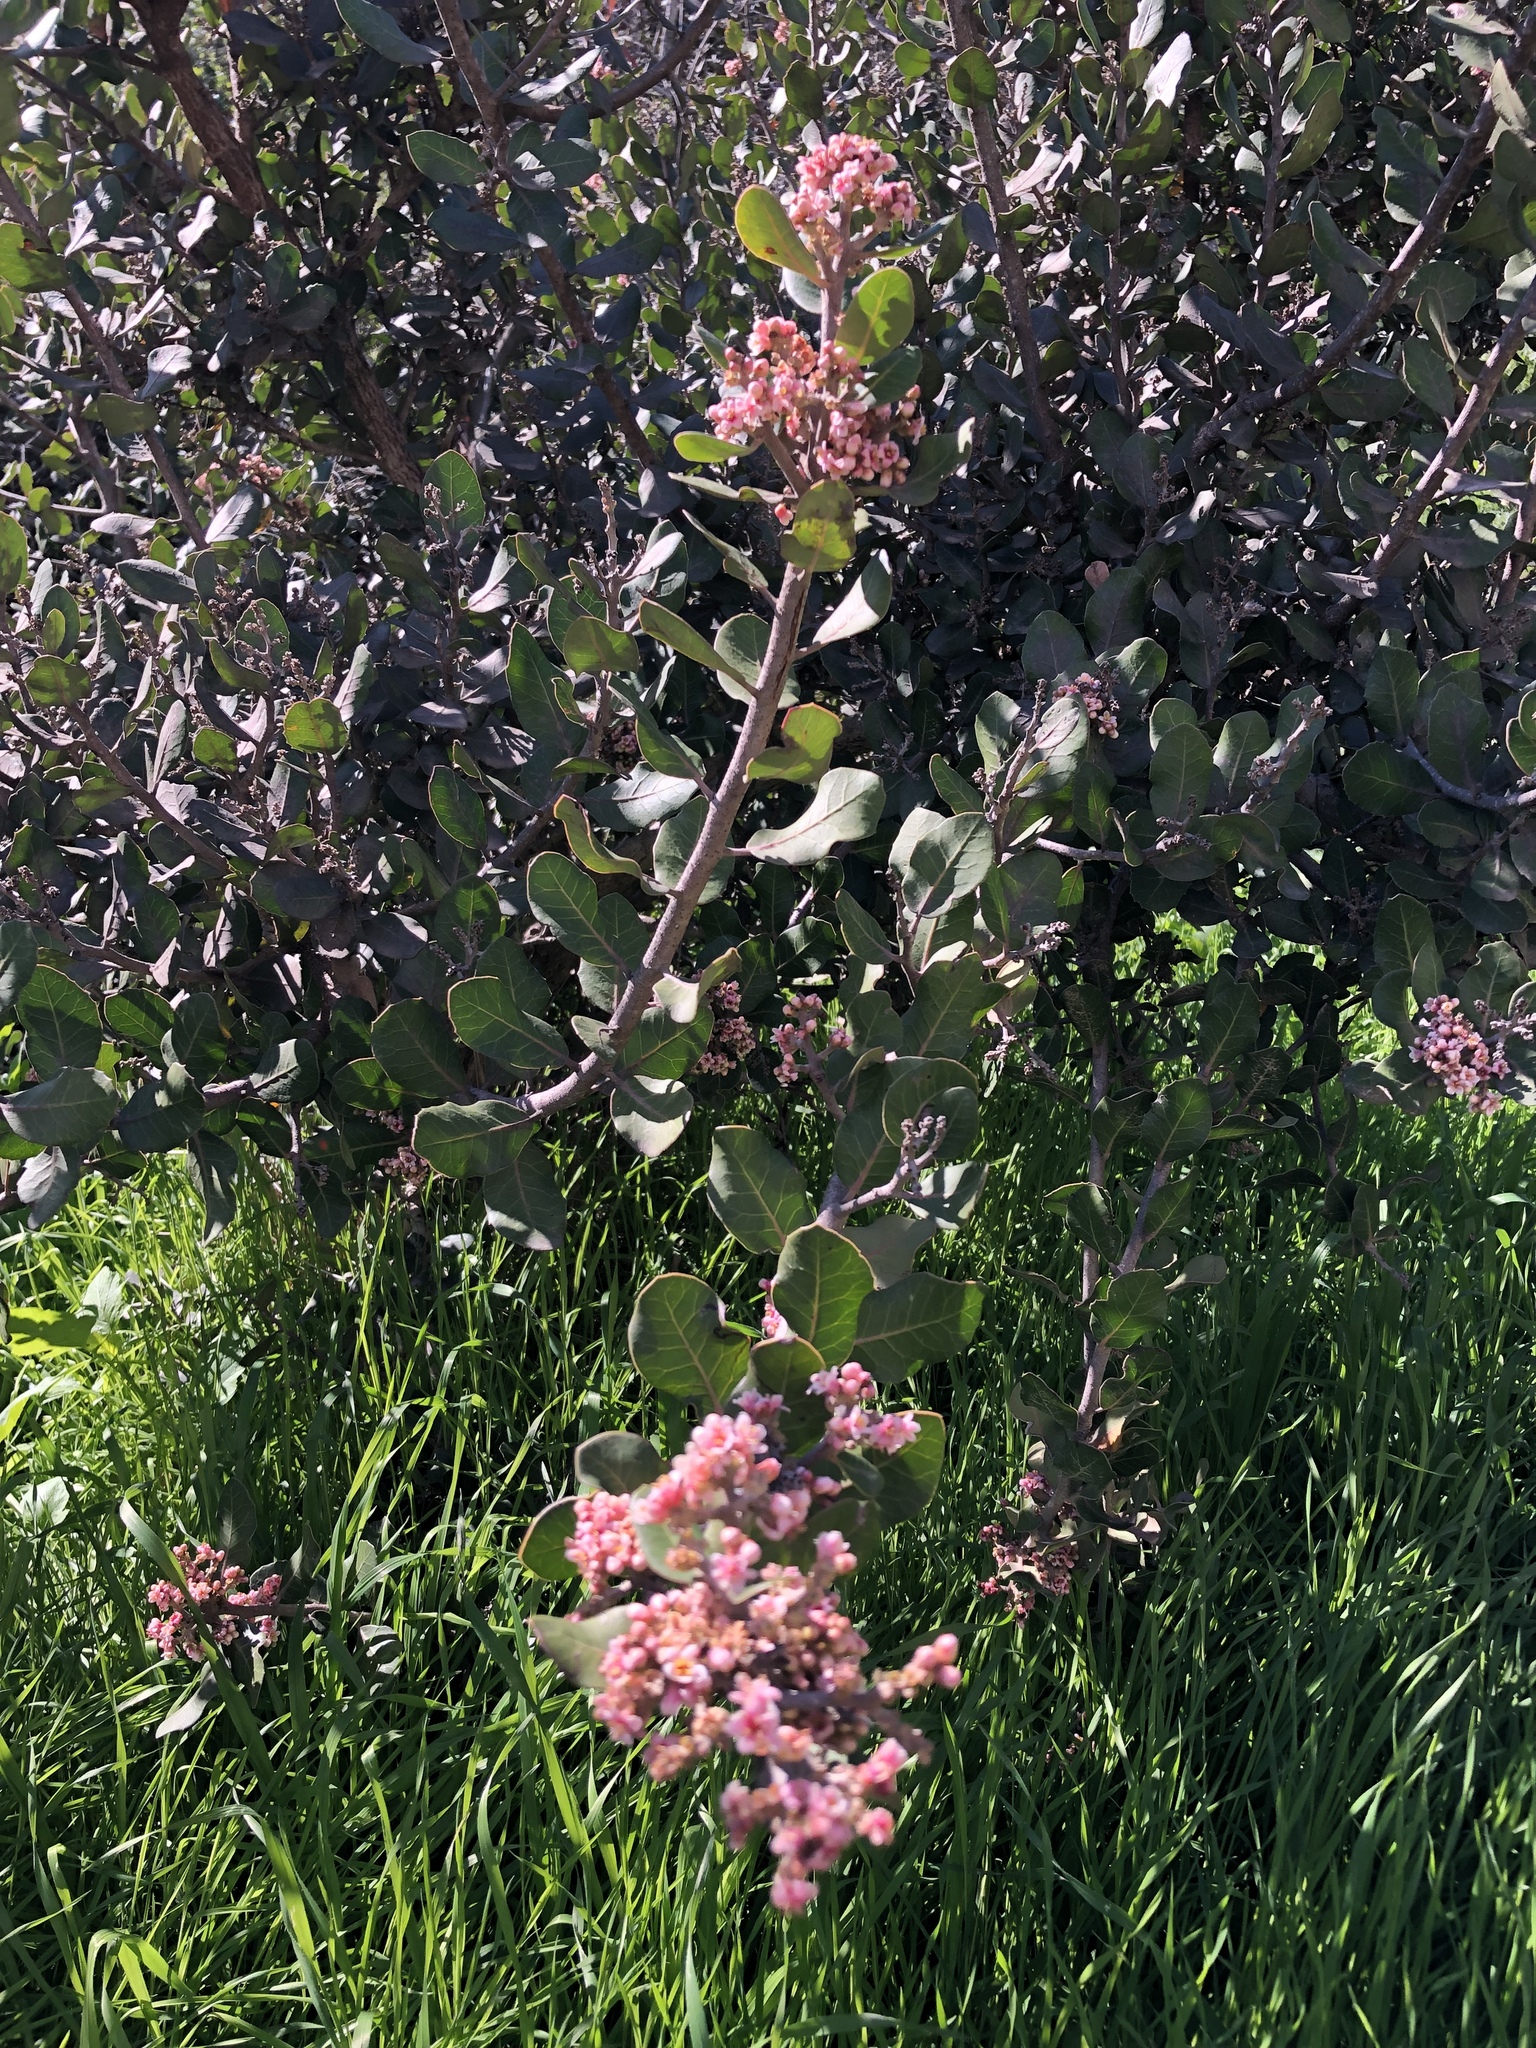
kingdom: Plantae
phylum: Tracheophyta
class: Magnoliopsida
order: Sapindales
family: Anacardiaceae
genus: Rhus
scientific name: Rhus integrifolia
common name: Lemonade sumac
